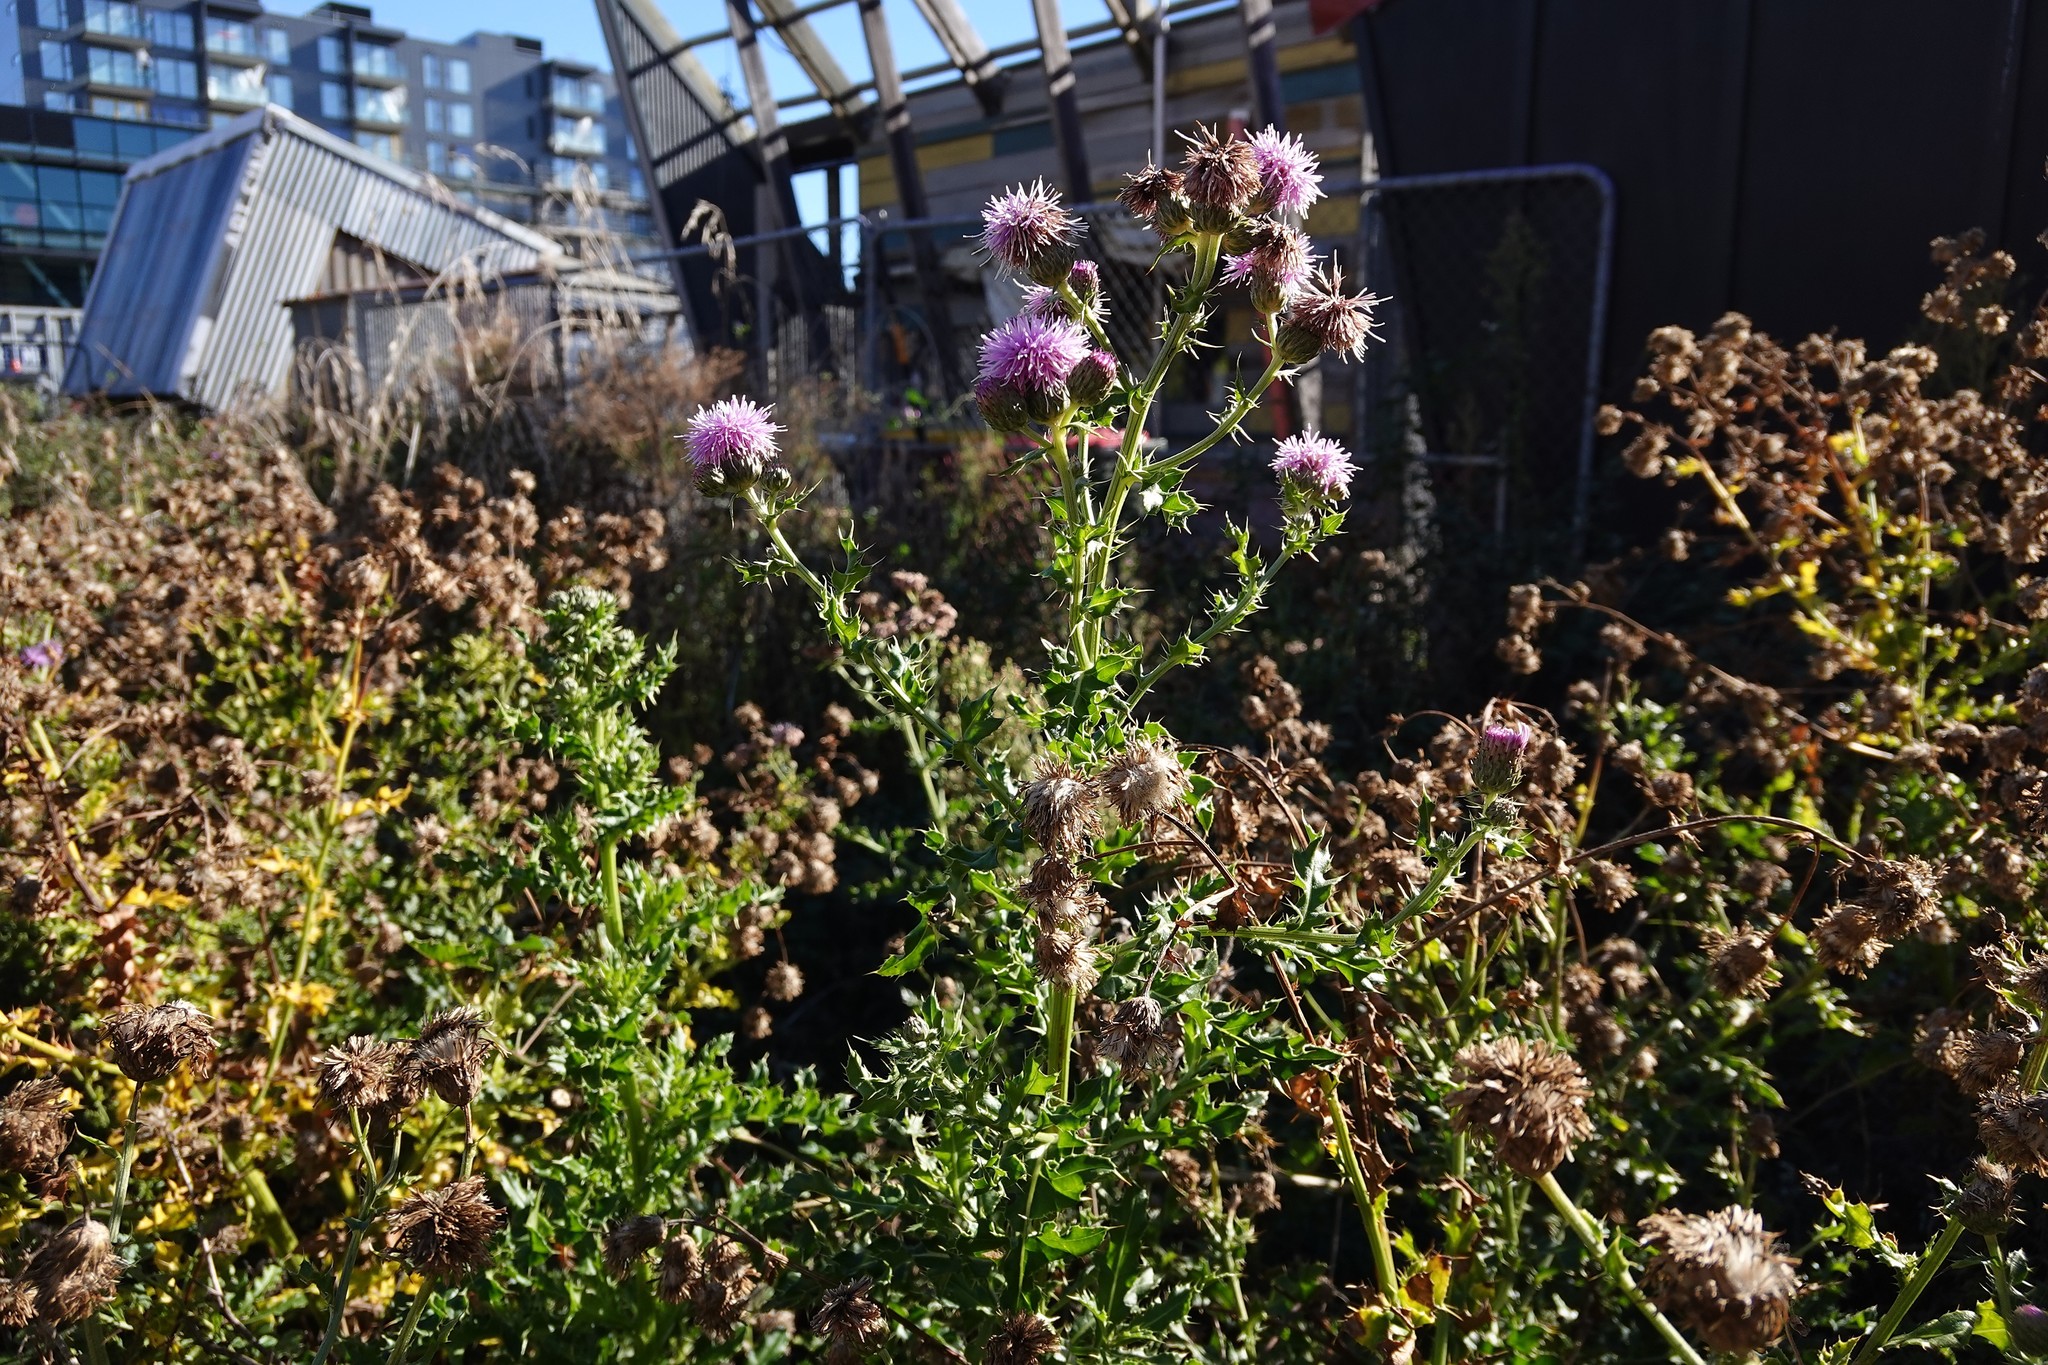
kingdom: Plantae
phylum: Tracheophyta
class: Magnoliopsida
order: Asterales
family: Asteraceae
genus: Cirsium
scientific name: Cirsium arvense
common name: Creeping thistle
